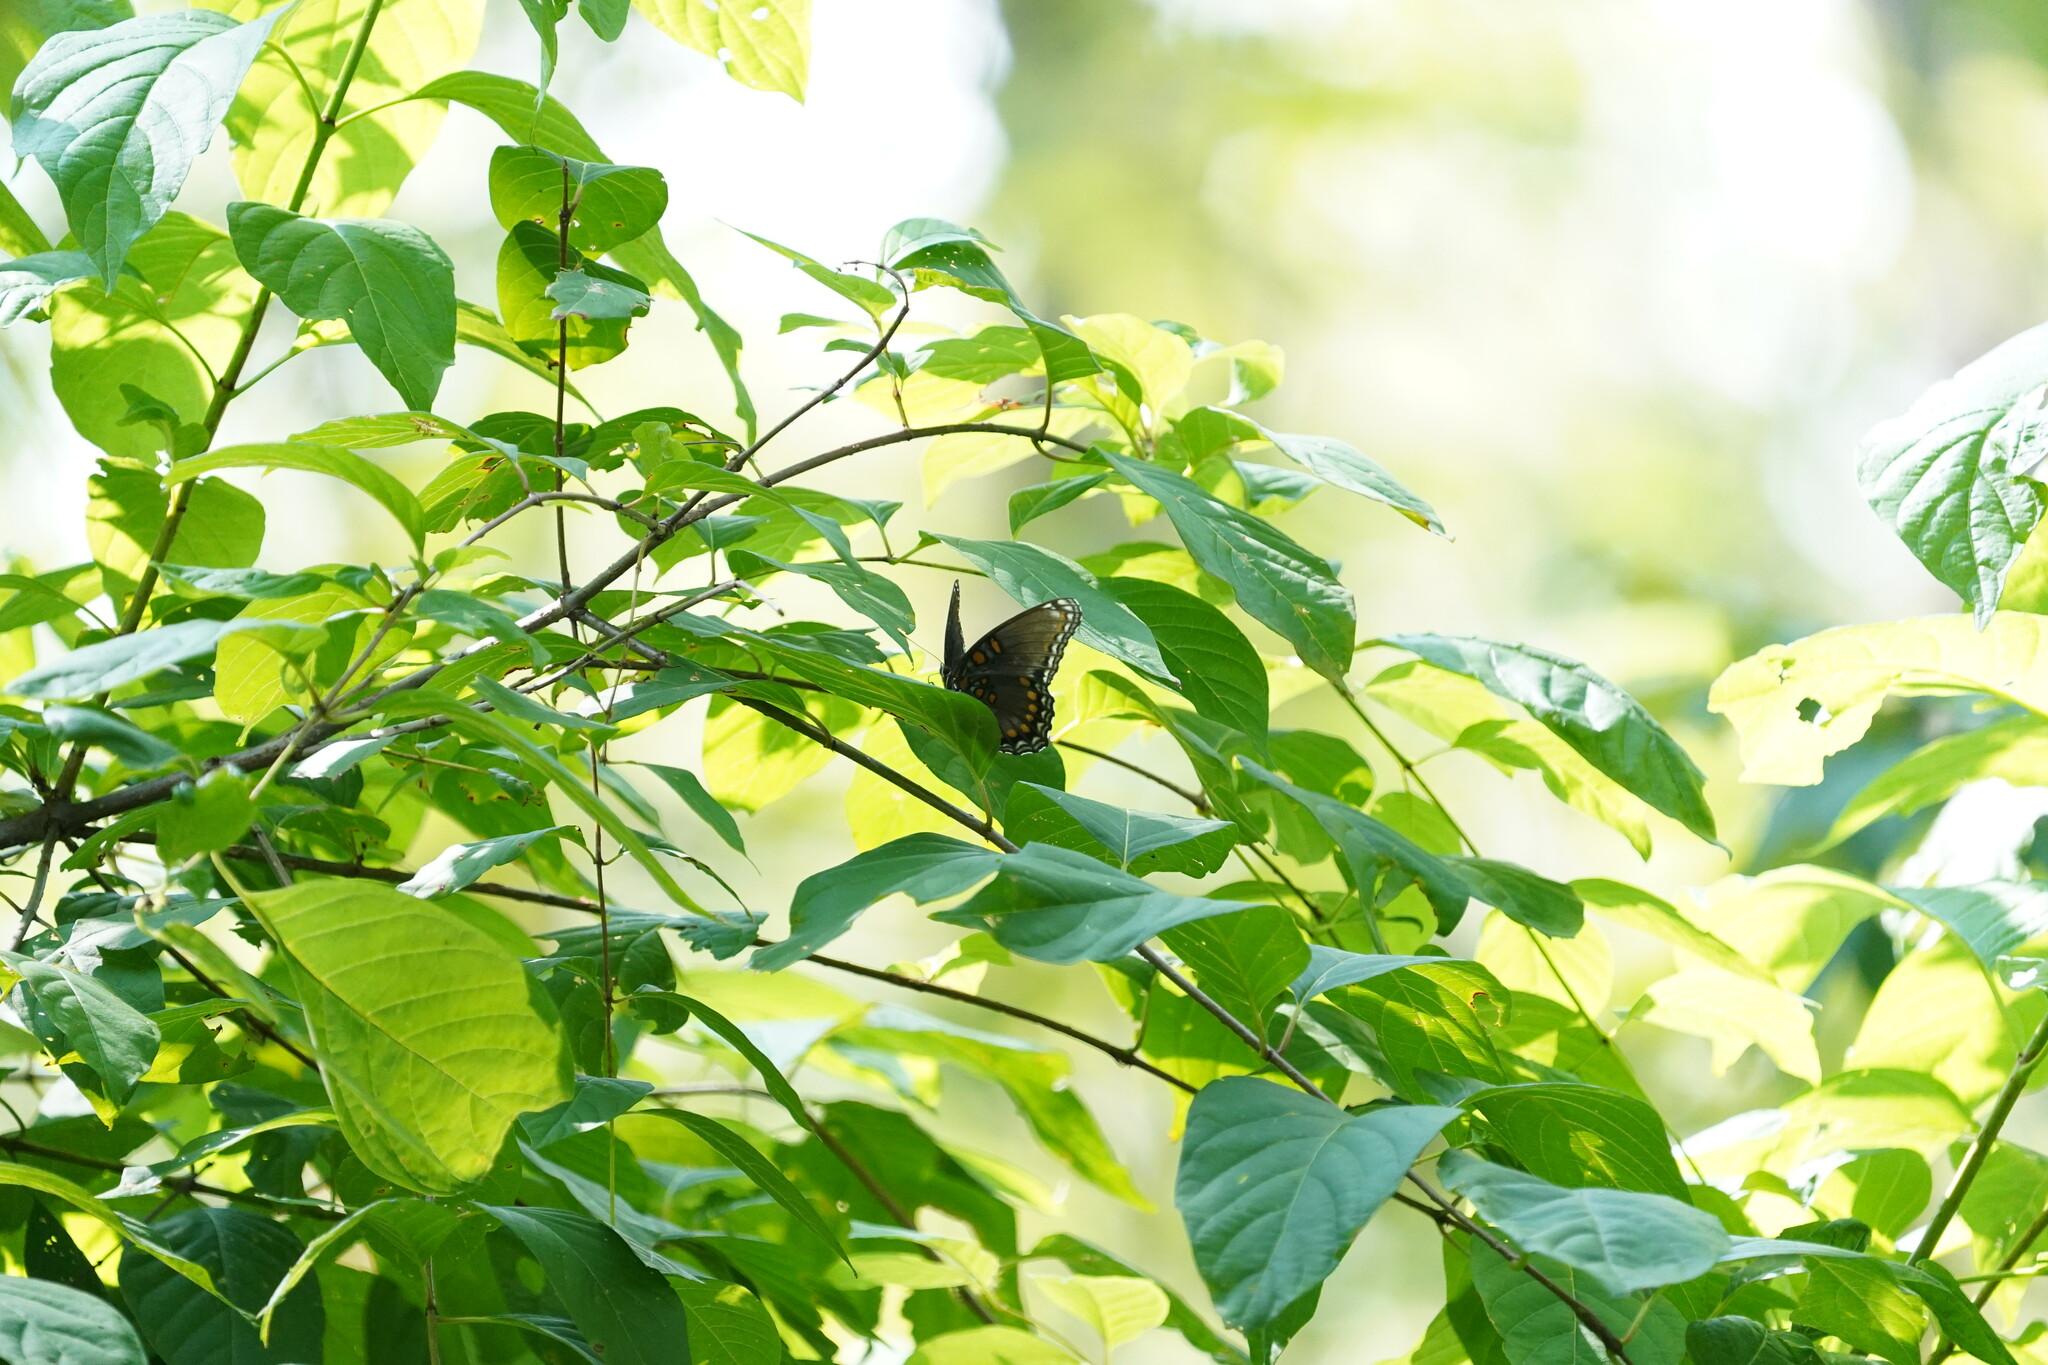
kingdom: Animalia
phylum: Arthropoda
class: Insecta
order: Lepidoptera
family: Nymphalidae
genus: Limenitis
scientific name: Limenitis arthemis
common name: Red-spotted admiral
